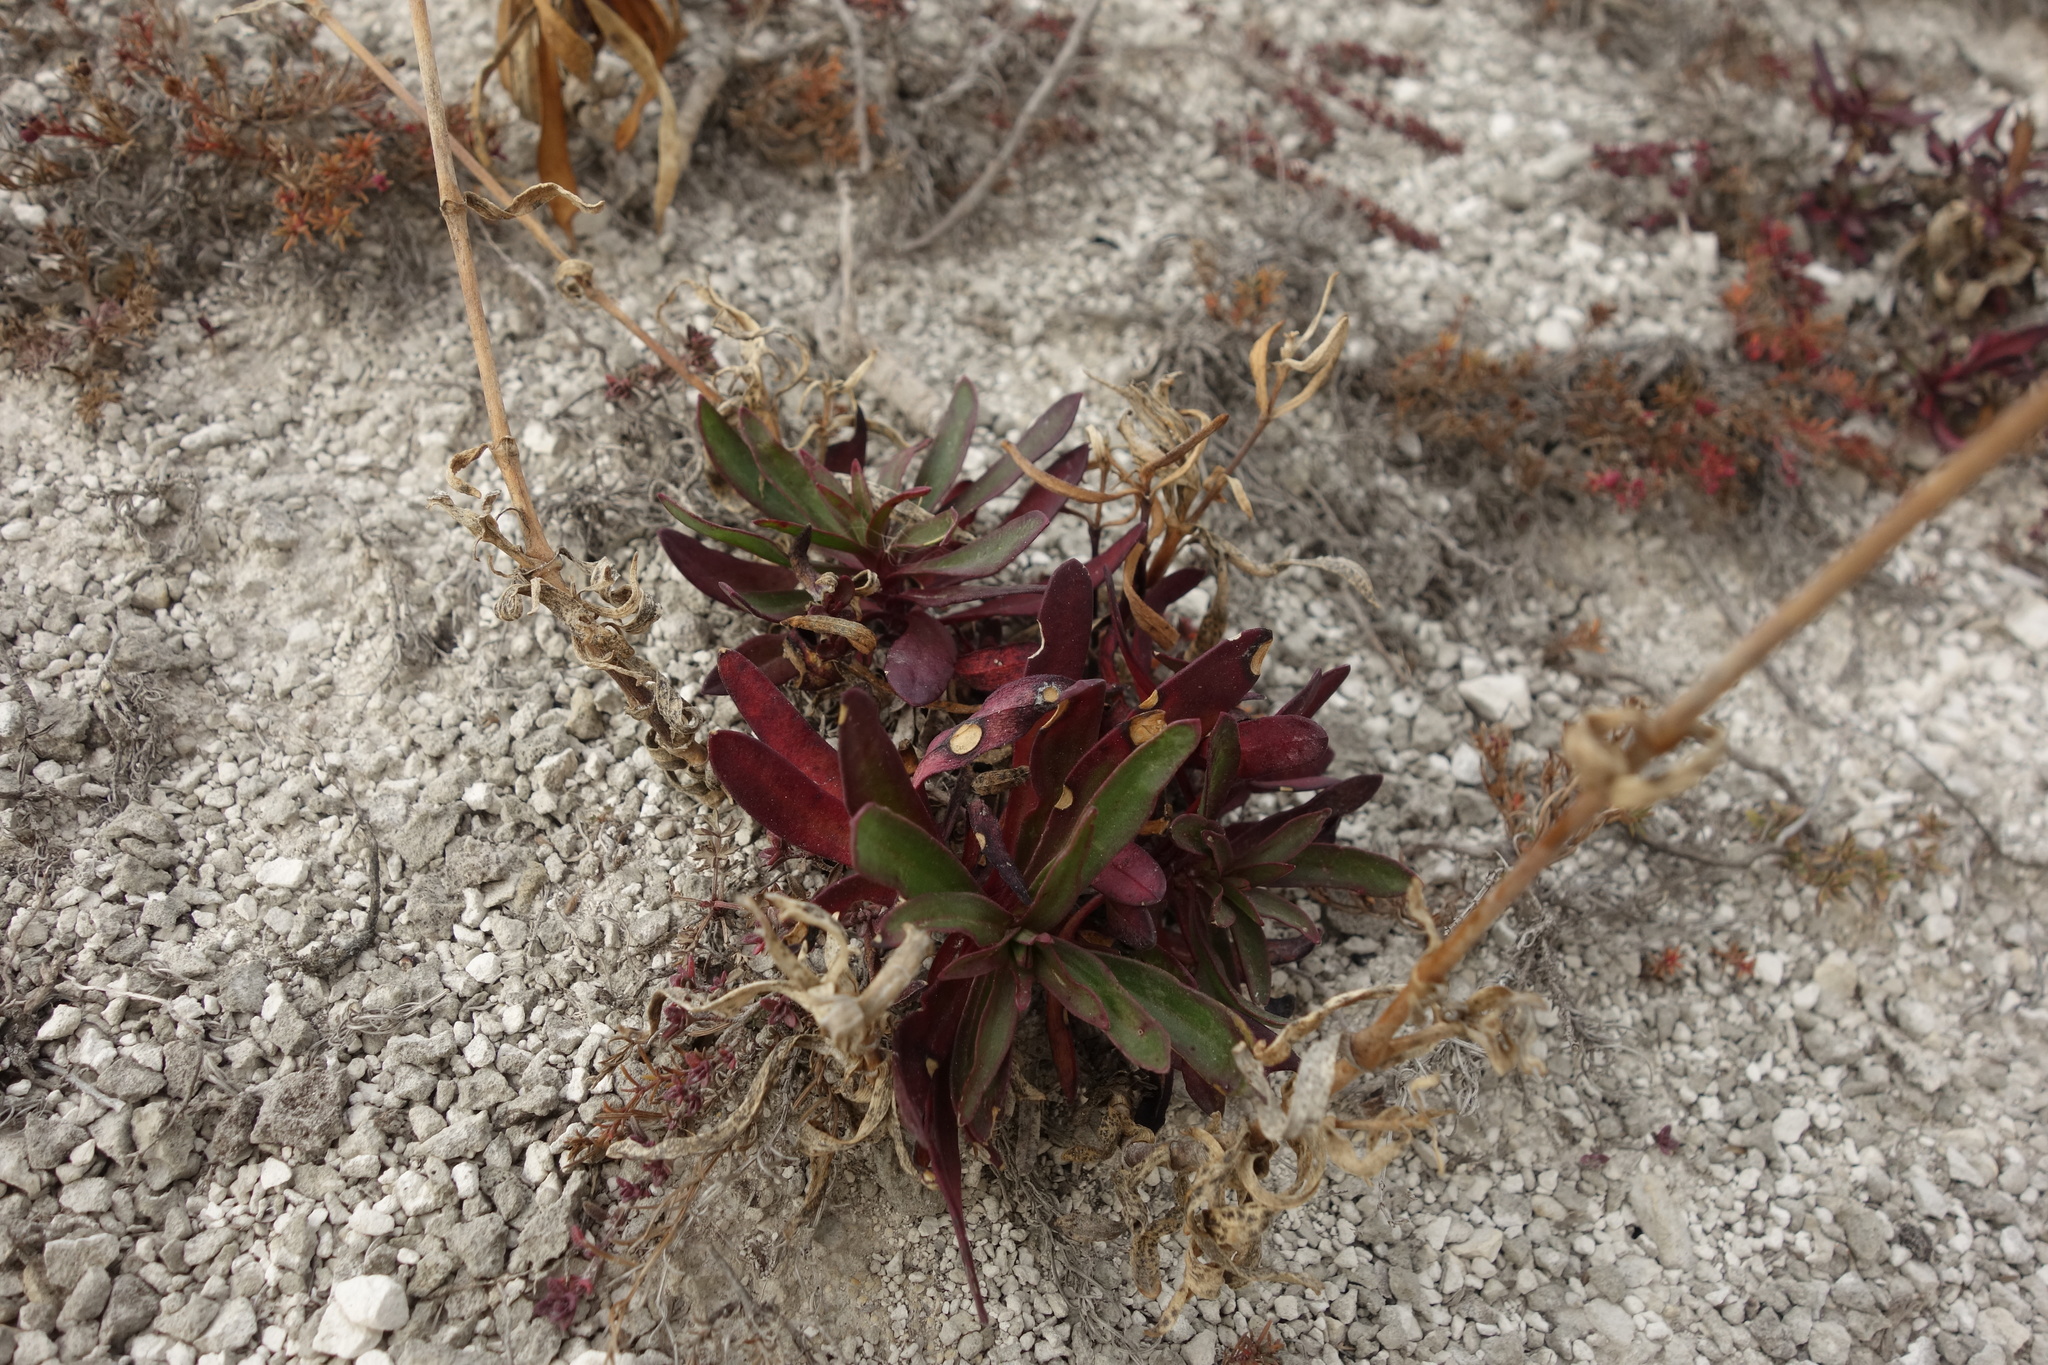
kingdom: Plantae
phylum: Tracheophyta
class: Magnoliopsida
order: Caryophyllales
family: Caryophyllaceae
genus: Gypsophila
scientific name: Gypsophila altissima
